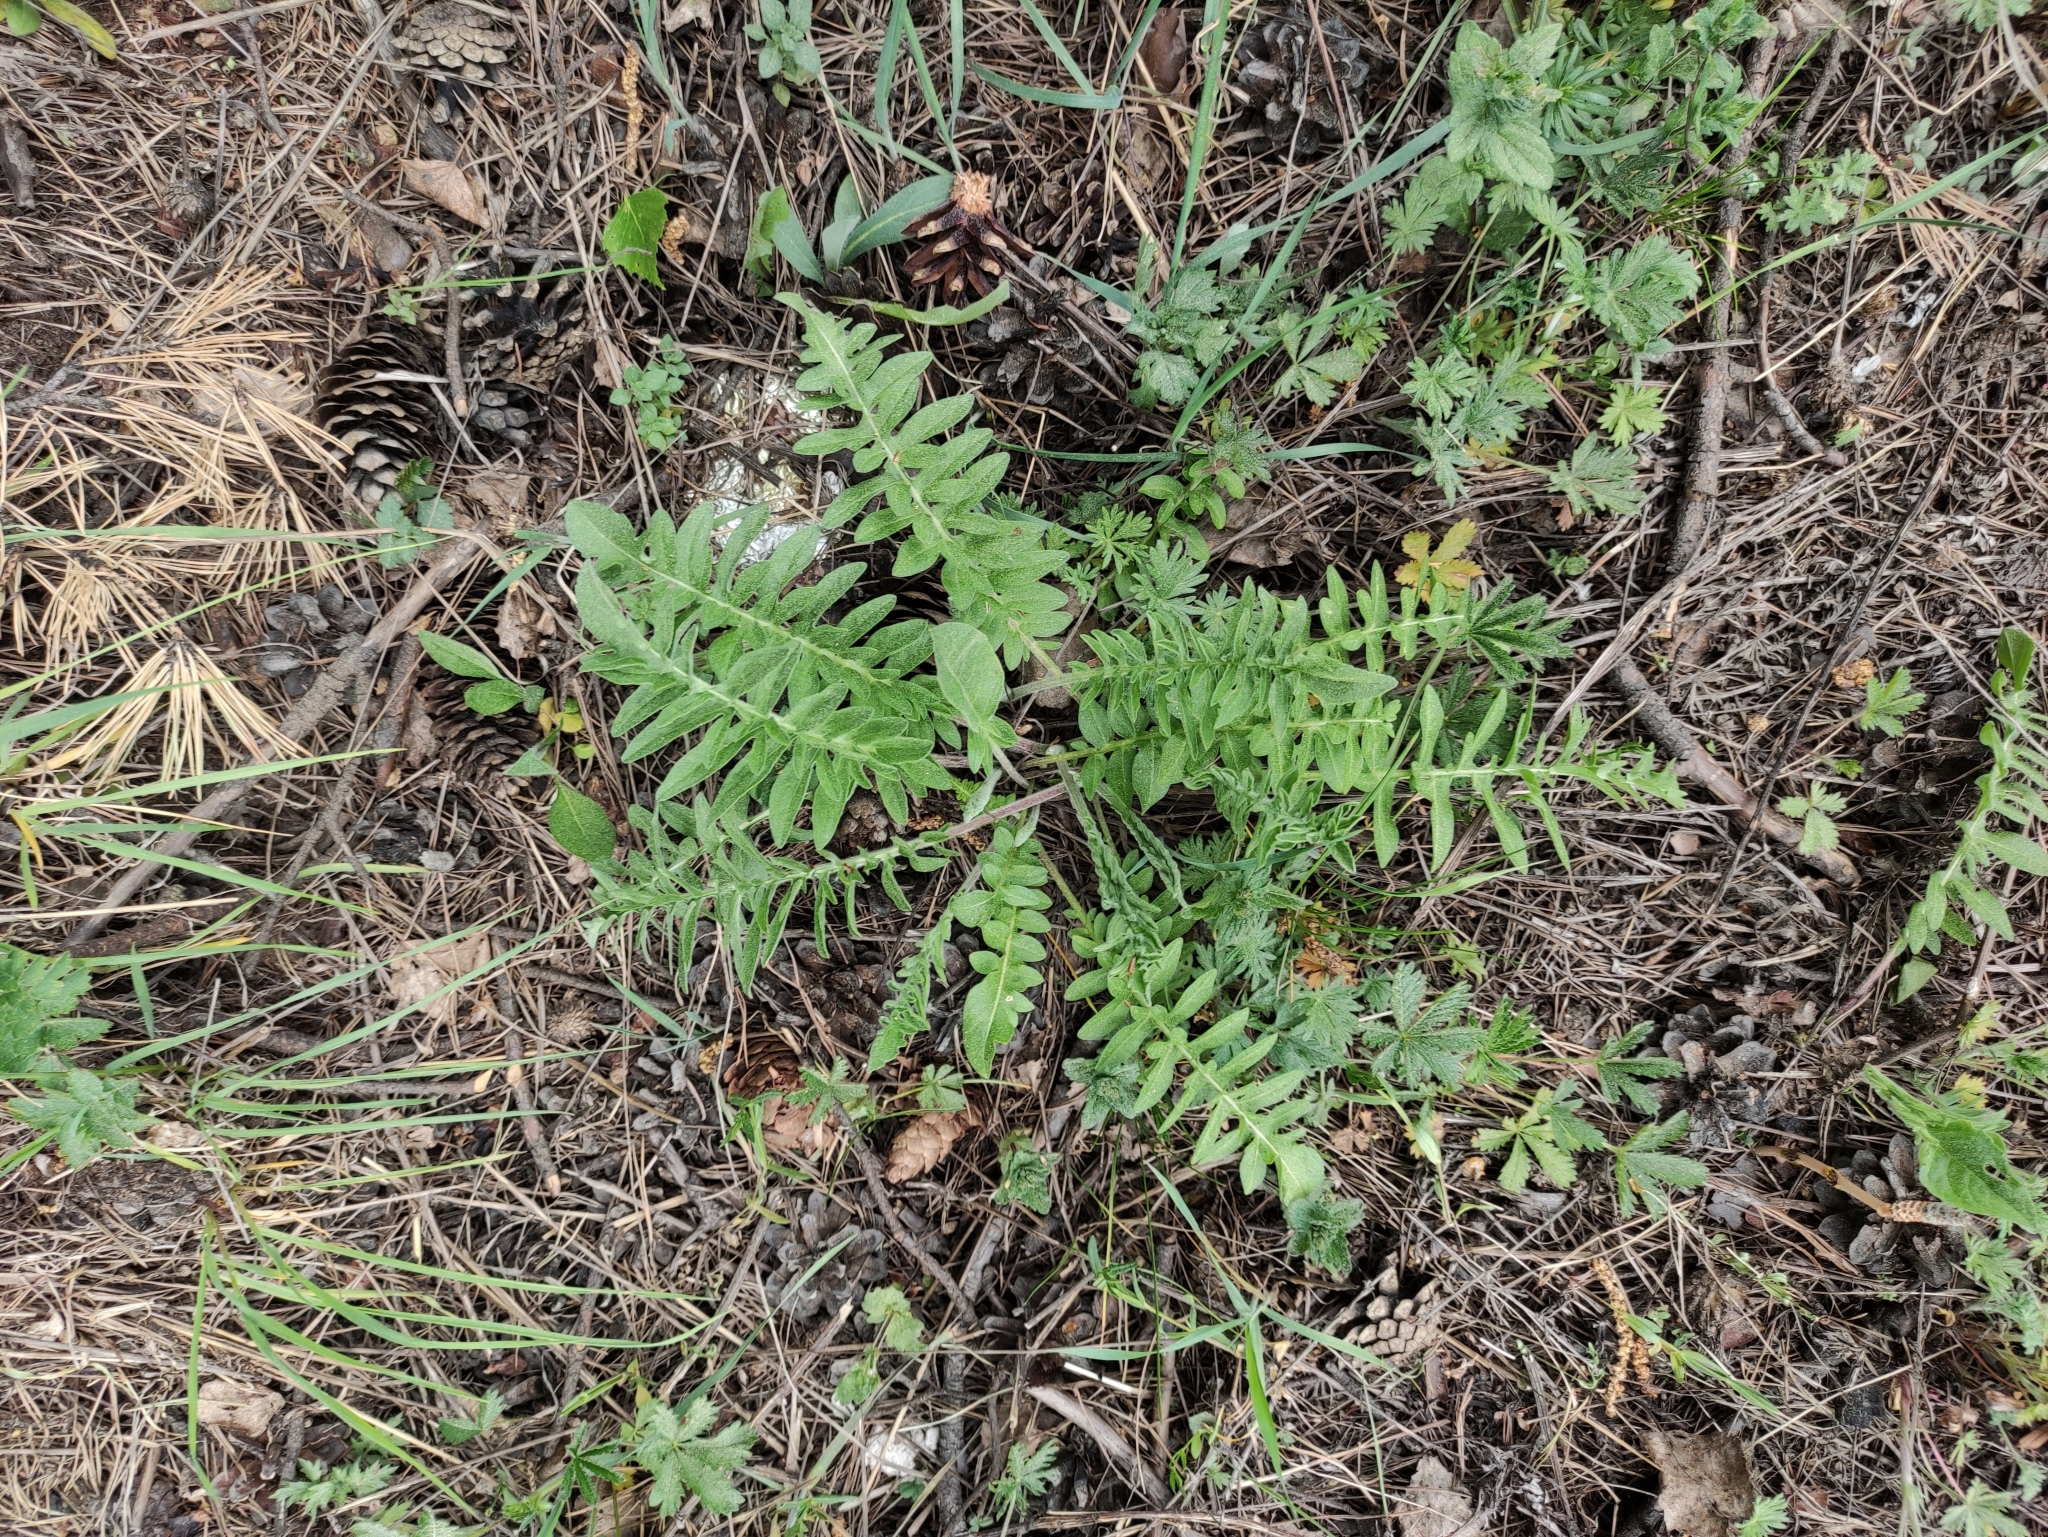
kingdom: Plantae
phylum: Tracheophyta
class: Magnoliopsida
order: Asterales
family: Asteraceae
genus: Centaurea
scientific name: Centaurea scabiosa
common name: Greater knapweed
